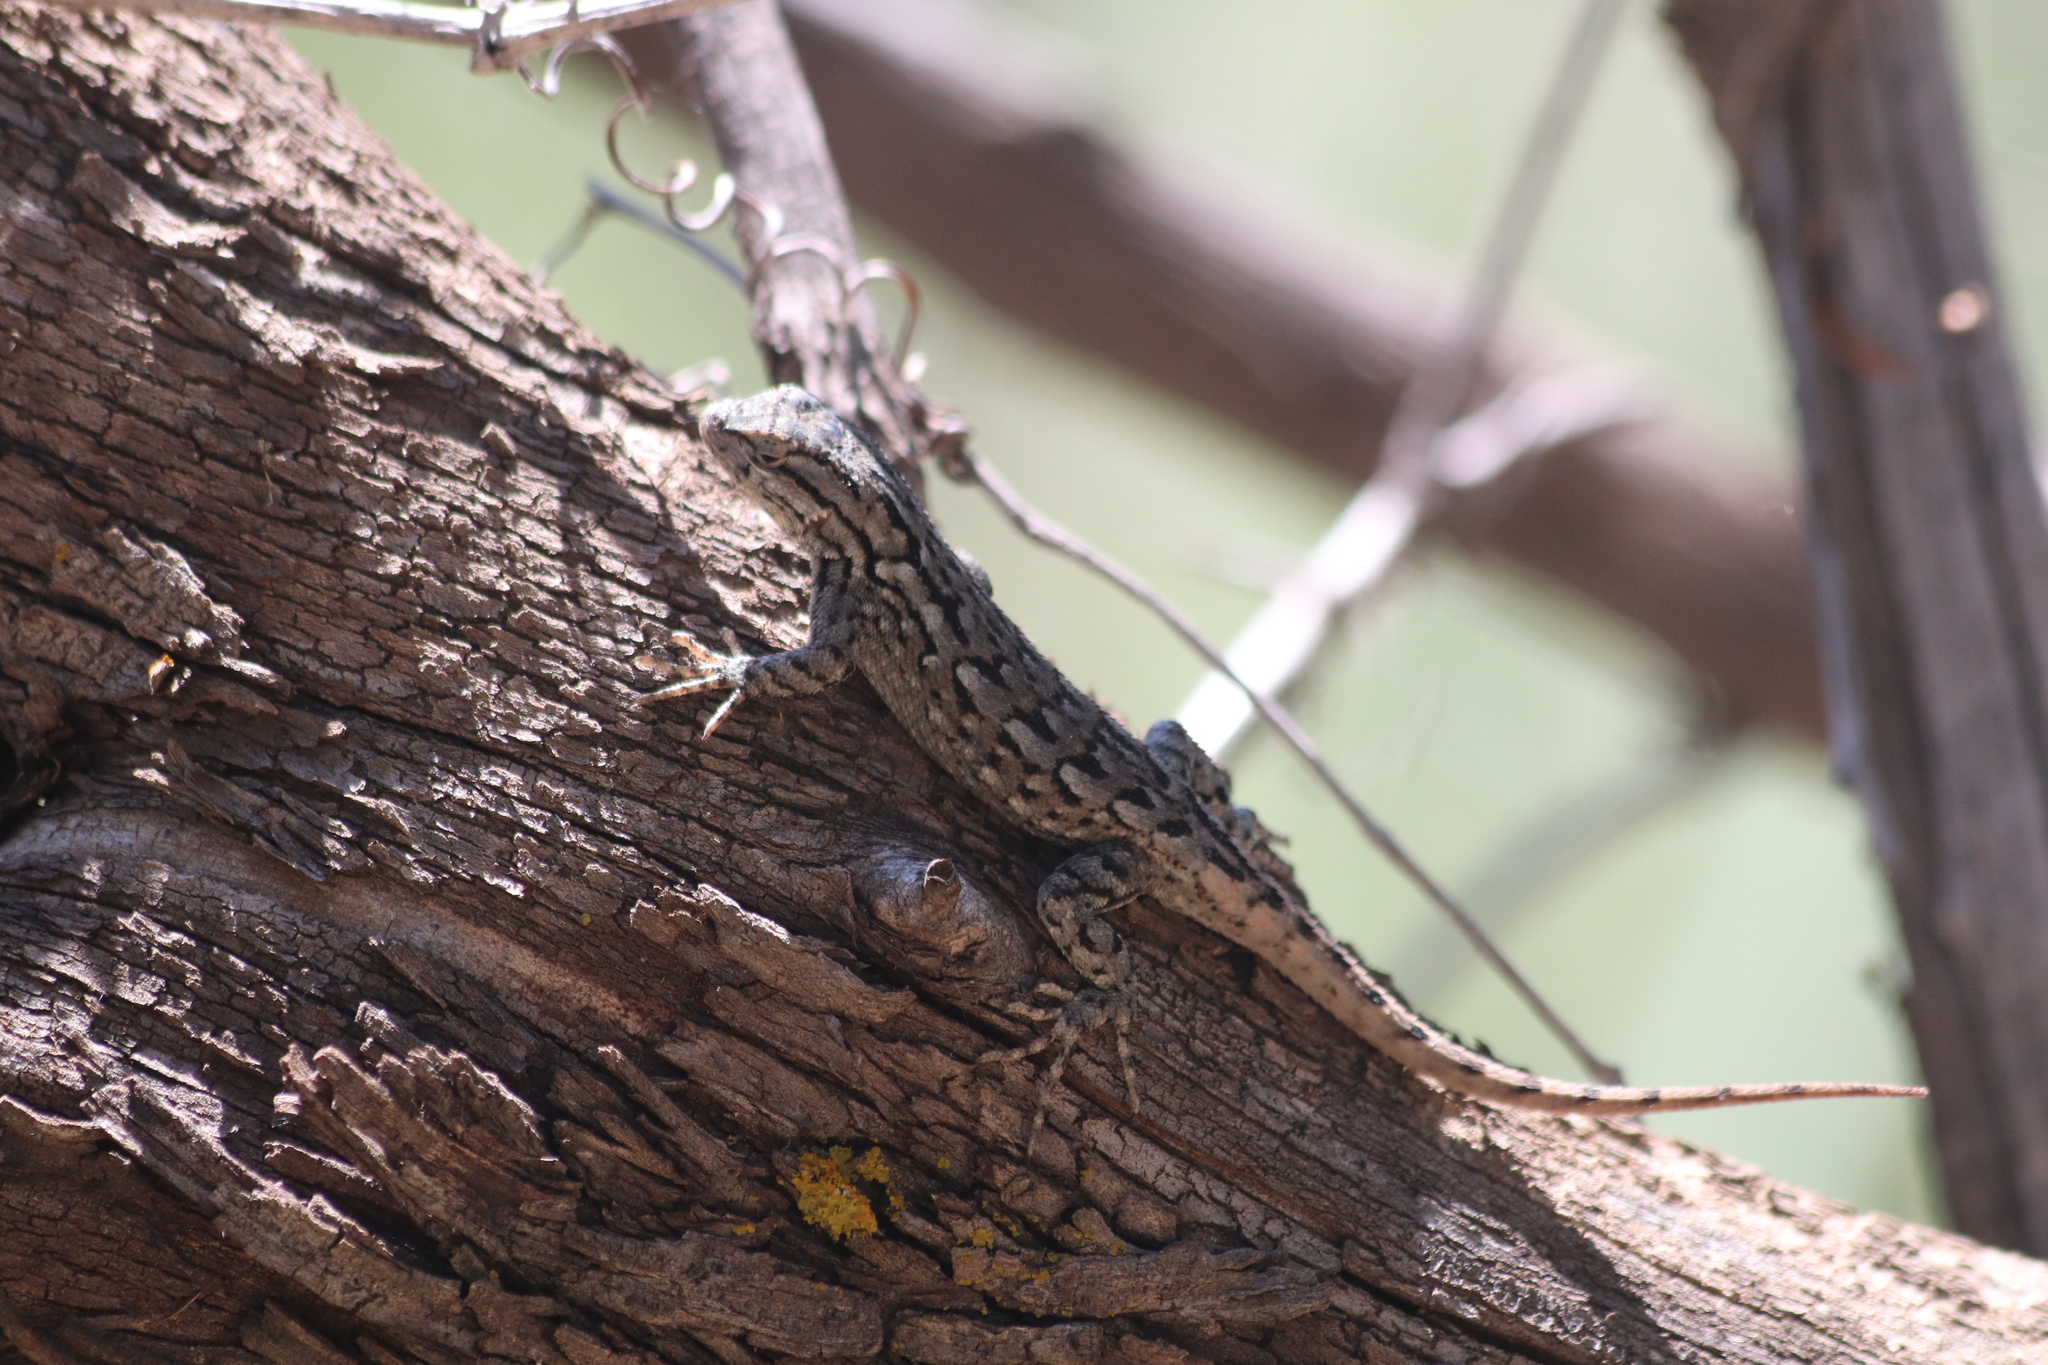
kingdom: Animalia
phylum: Chordata
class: Squamata
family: Phrynosomatidae
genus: Sceloporus
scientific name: Sceloporus consobrinus
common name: Southern prairie lizard
